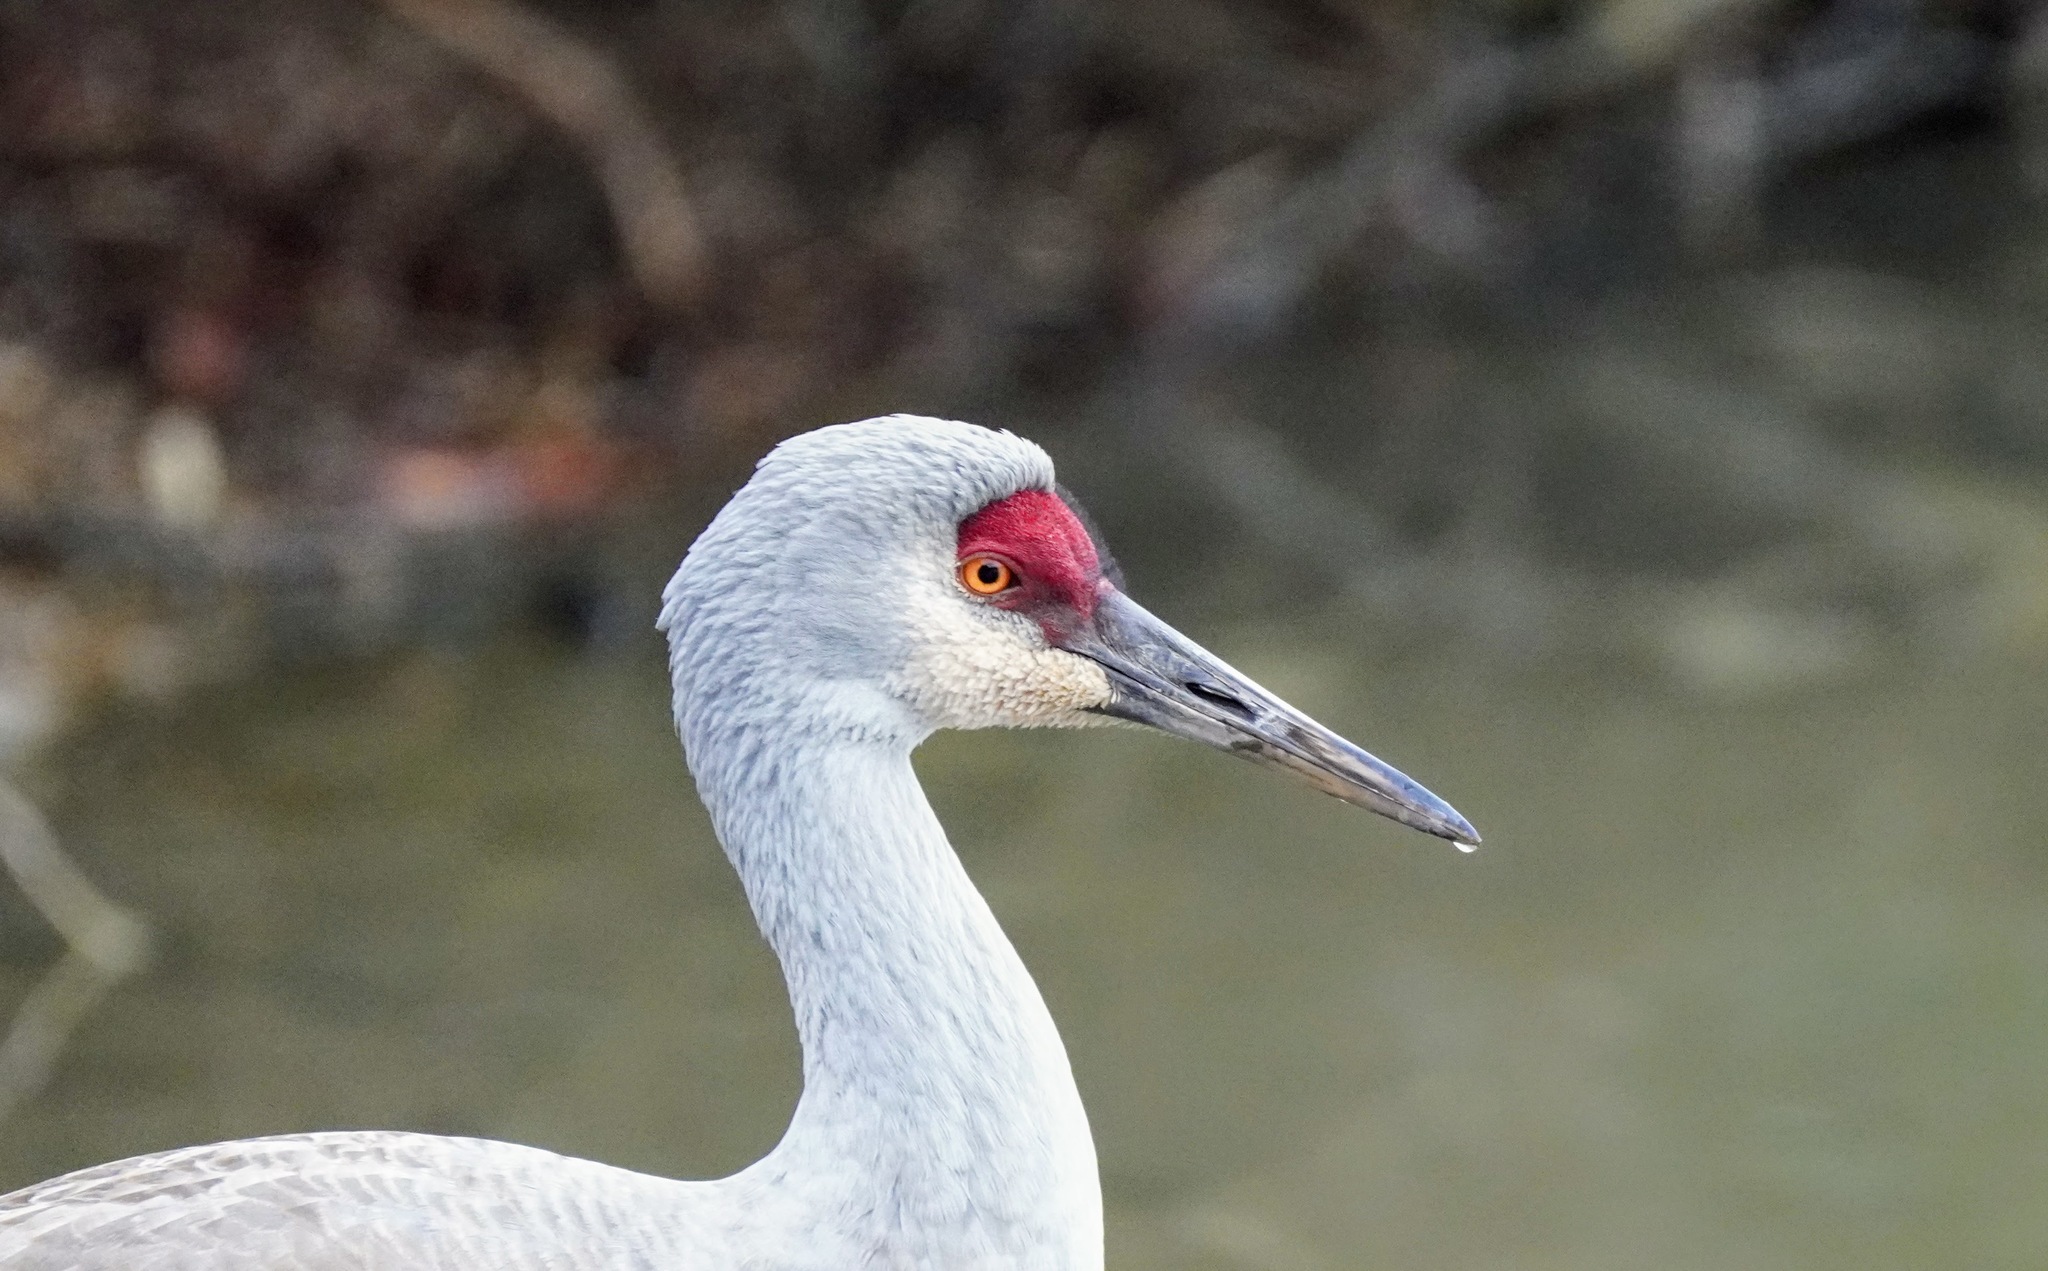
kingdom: Animalia
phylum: Chordata
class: Aves
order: Gruiformes
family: Gruidae
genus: Grus
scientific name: Grus canadensis
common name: Sandhill crane
